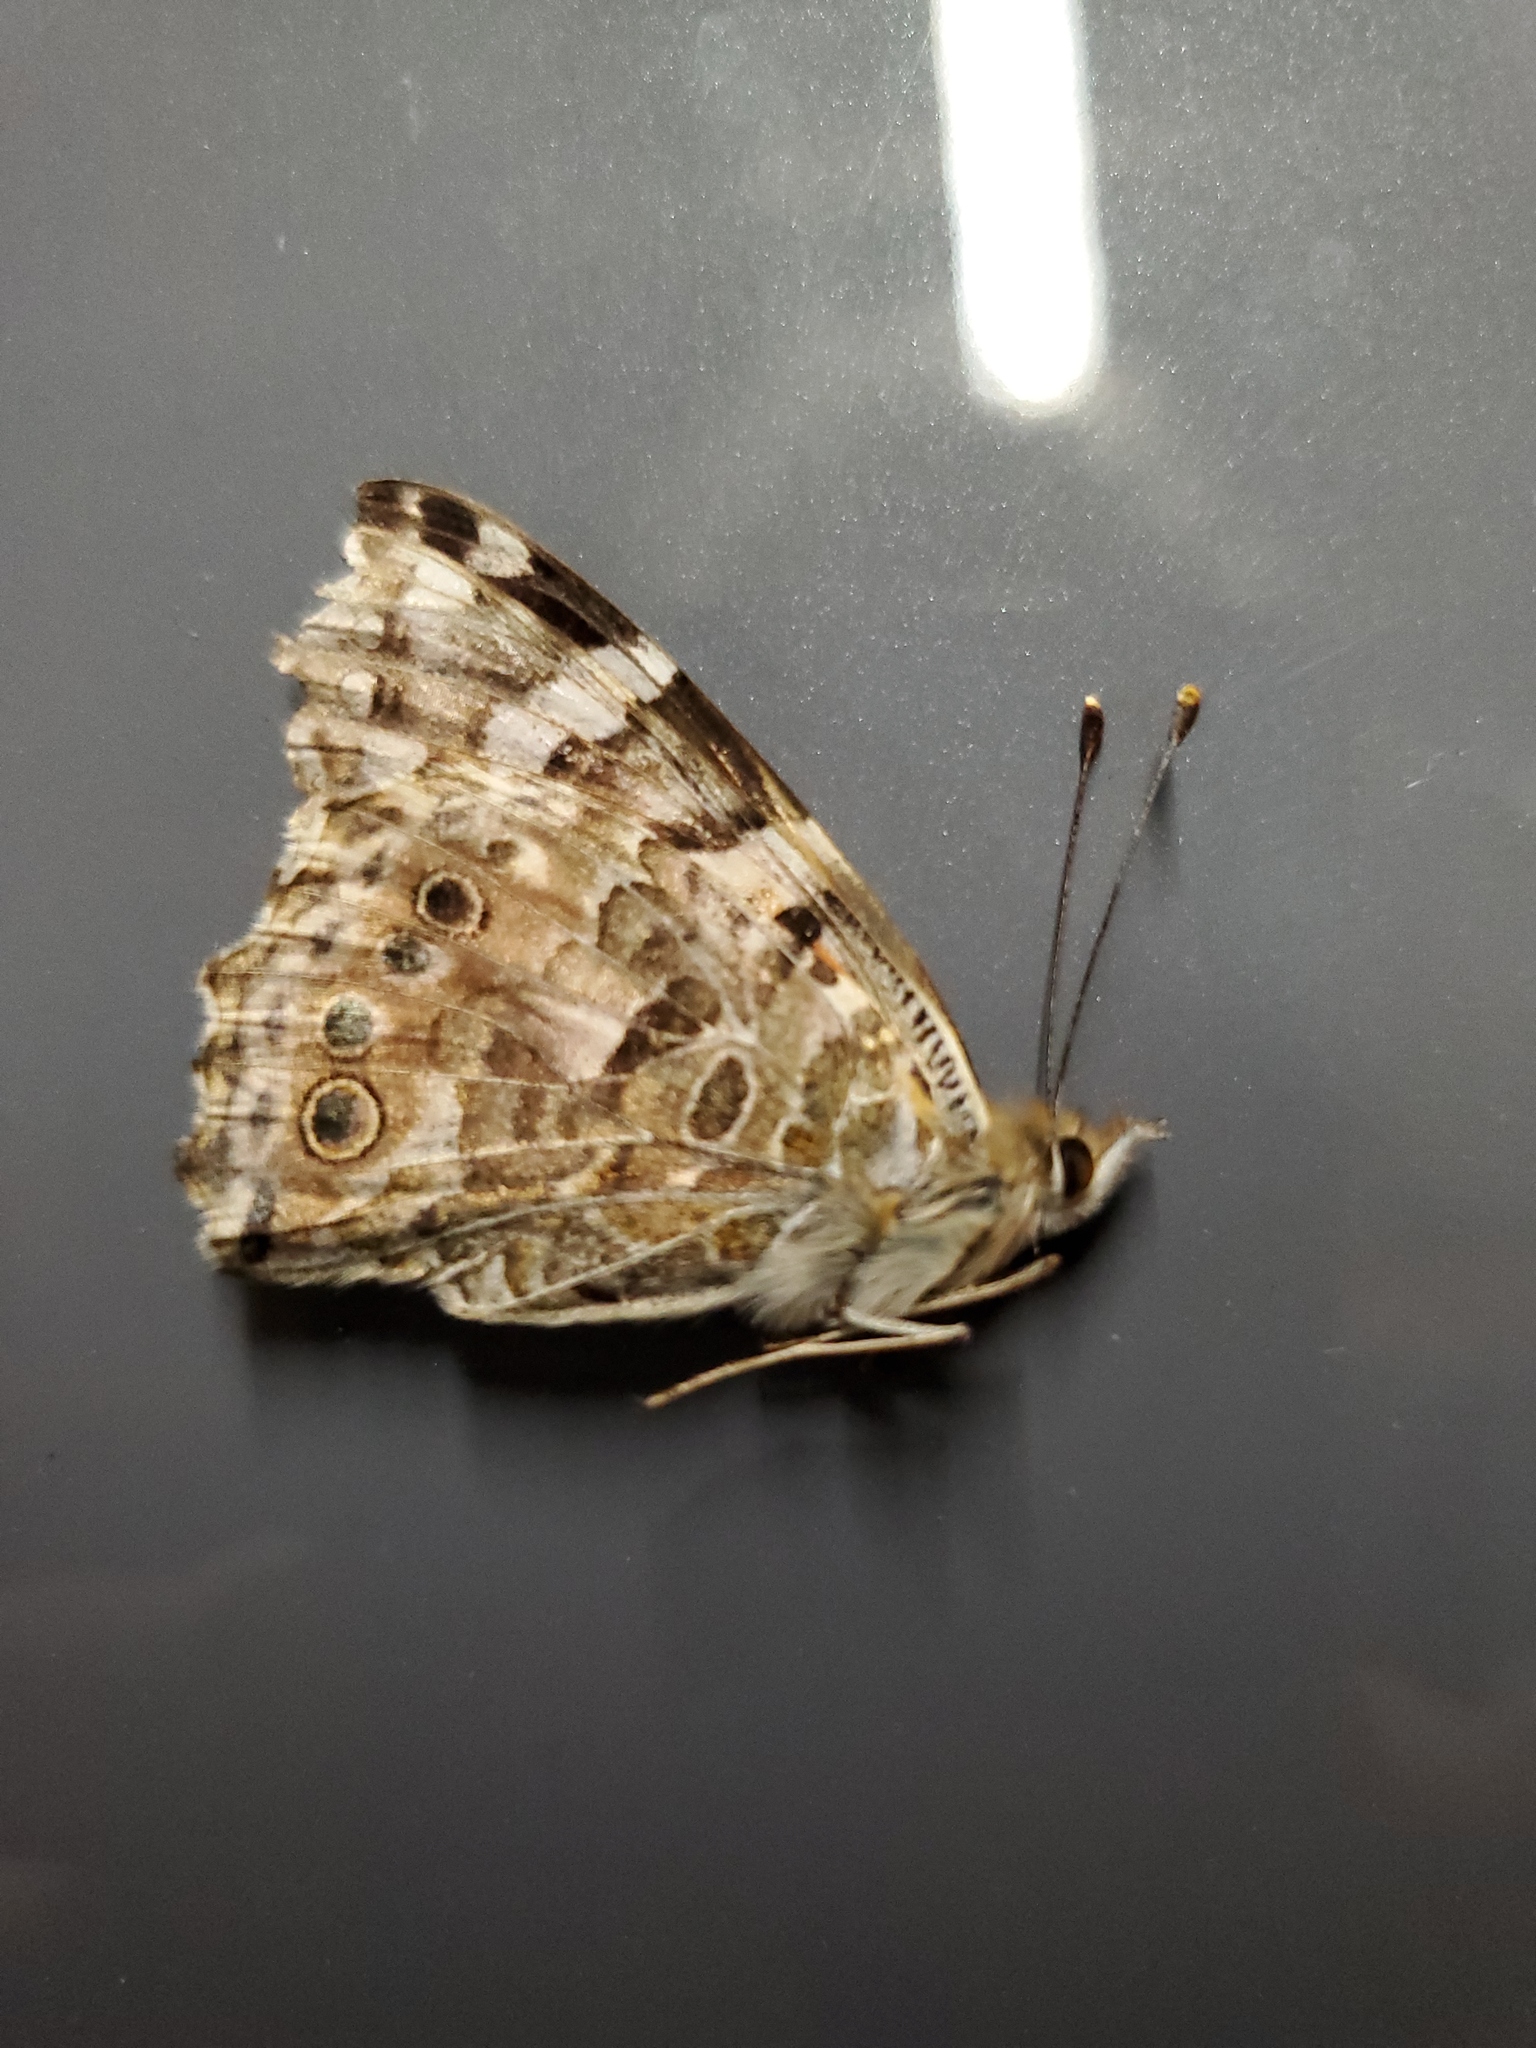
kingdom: Animalia
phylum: Arthropoda
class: Insecta
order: Lepidoptera
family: Nymphalidae
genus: Vanessa
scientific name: Vanessa cardui
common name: Painted lady
